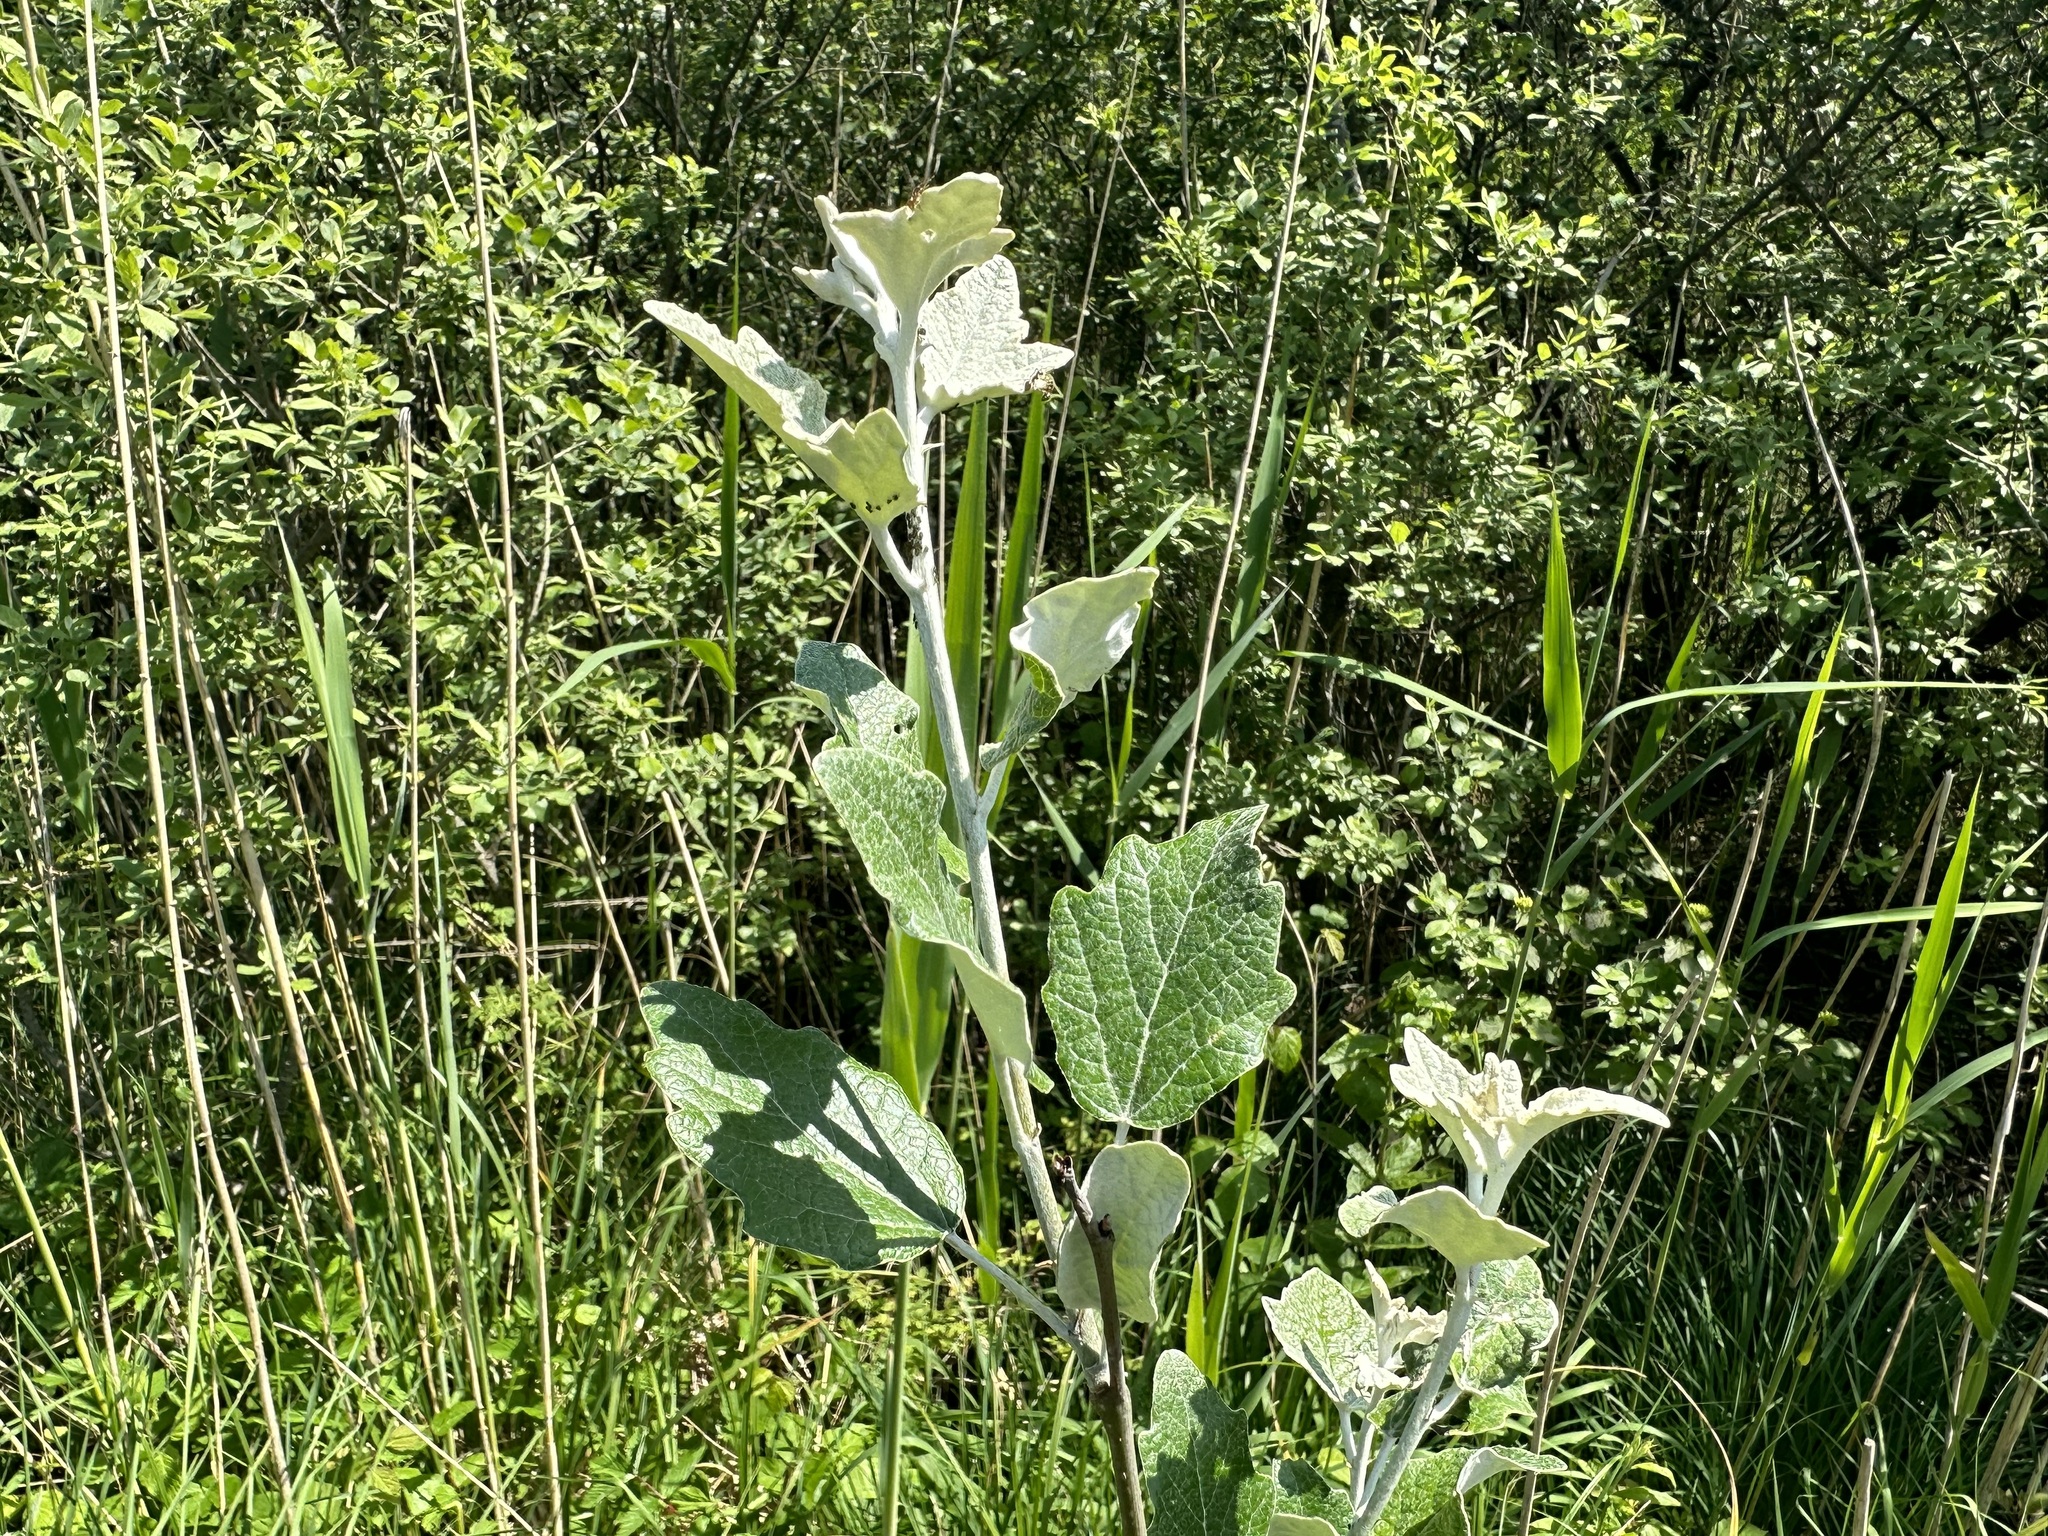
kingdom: Plantae
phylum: Tracheophyta
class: Magnoliopsida
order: Malpighiales
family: Salicaceae
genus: Populus
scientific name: Populus alba
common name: White poplar
